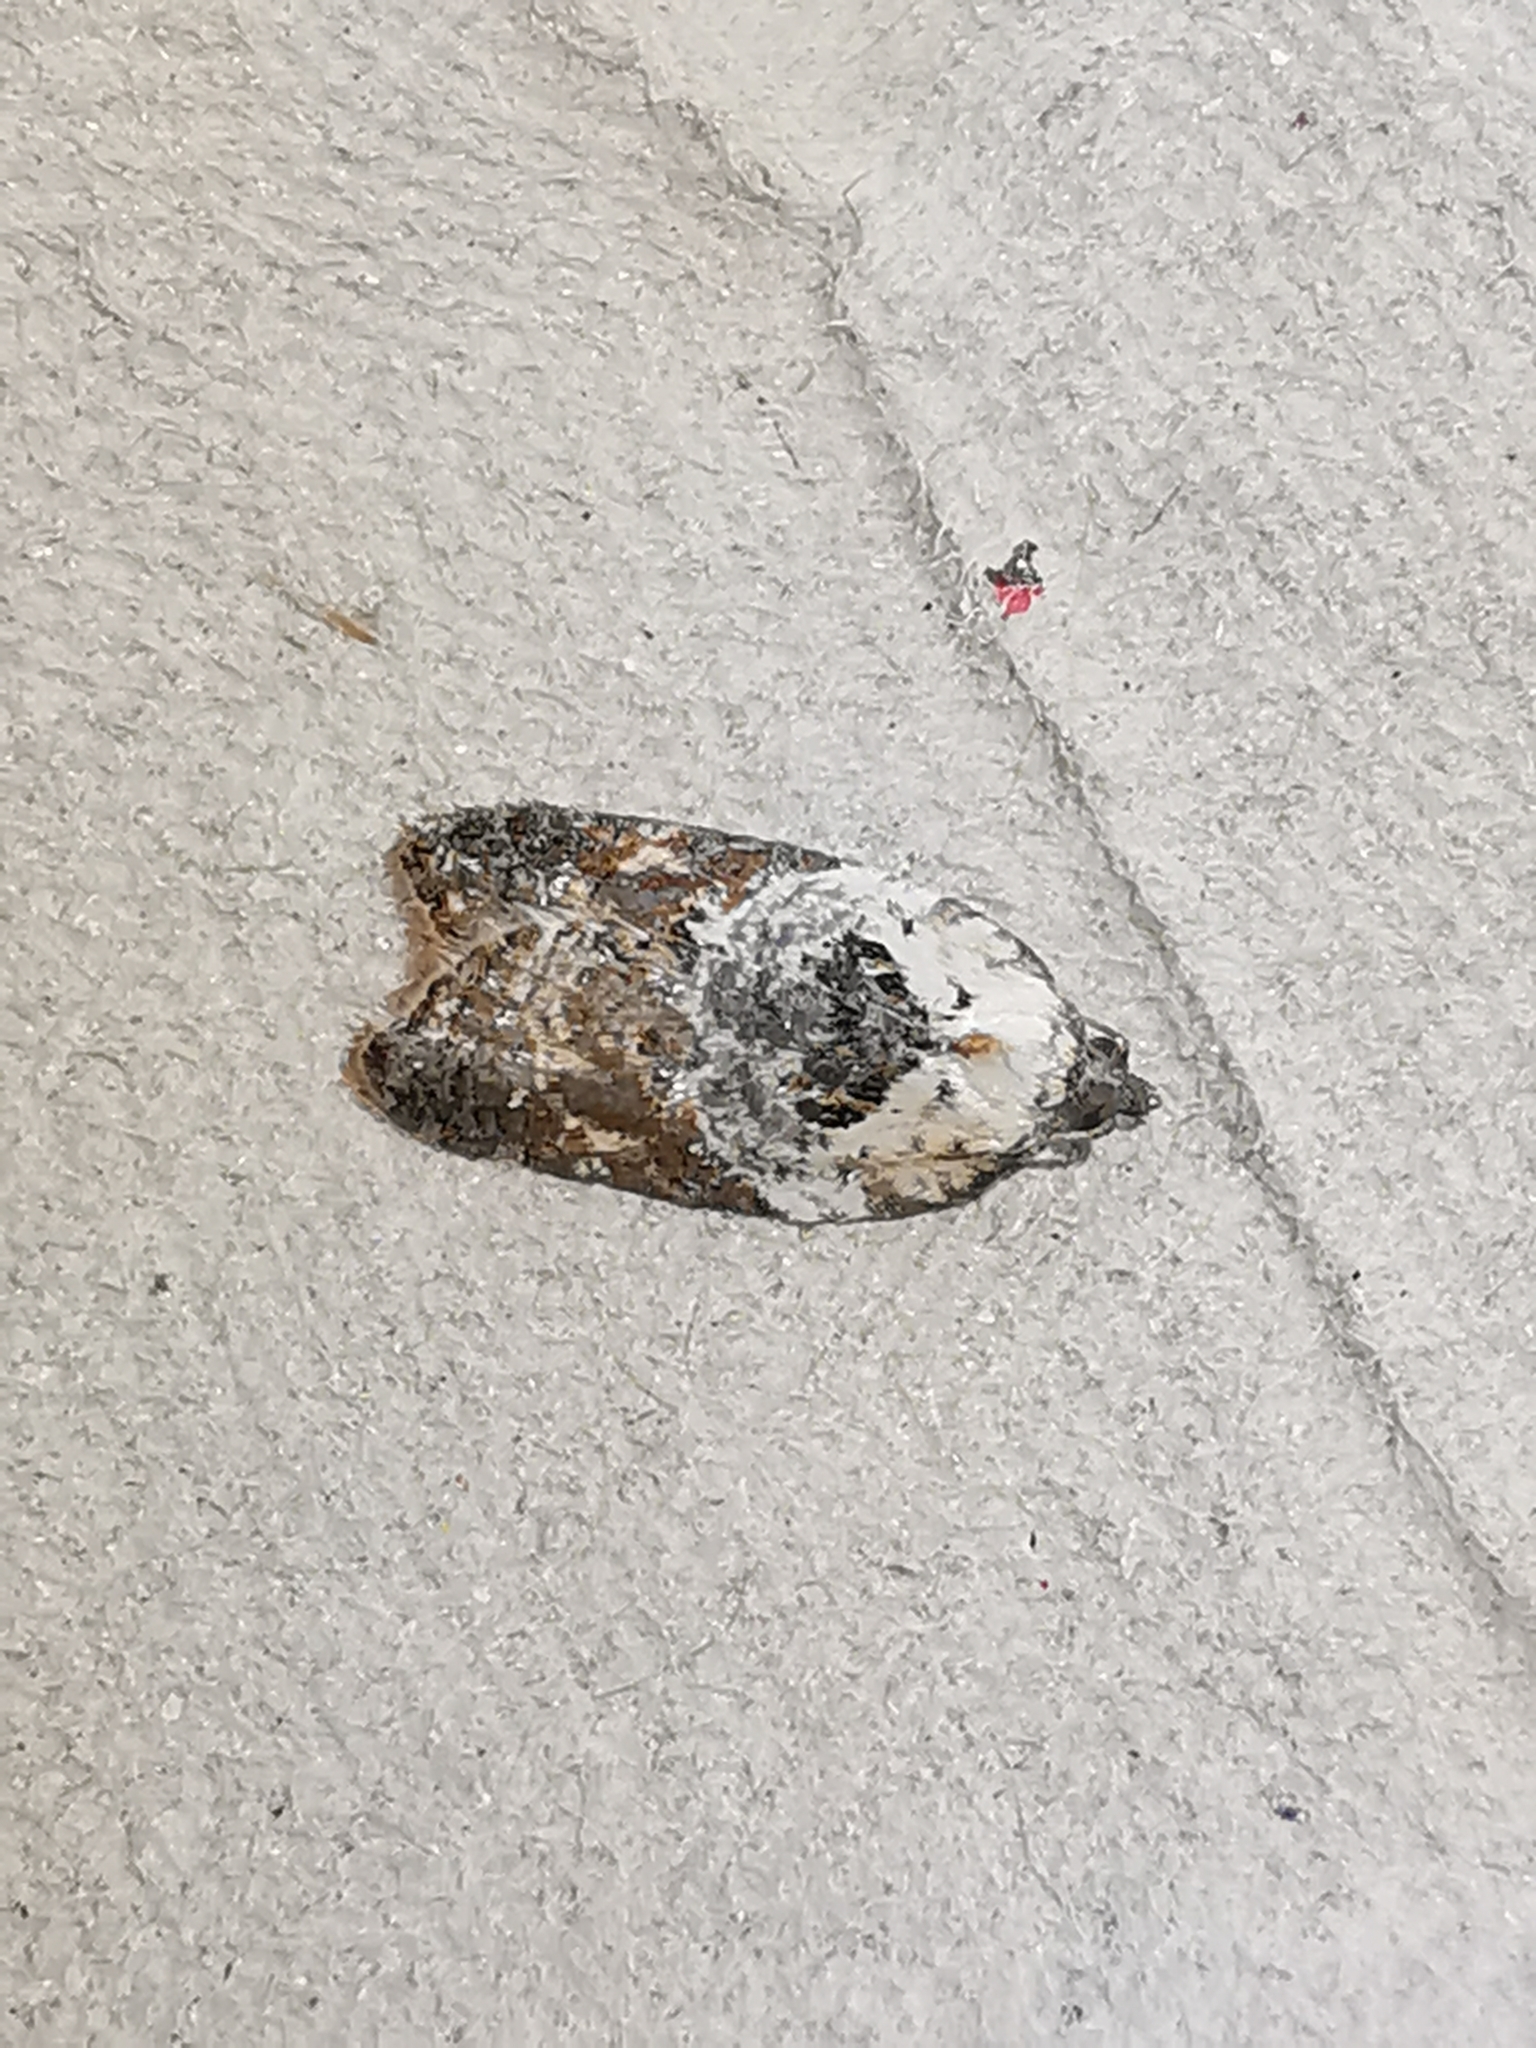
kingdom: Animalia
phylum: Arthropoda
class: Insecta
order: Lepidoptera
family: Tortricidae
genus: Acleris
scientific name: Acleris variegana
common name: Garden rose tortrix
